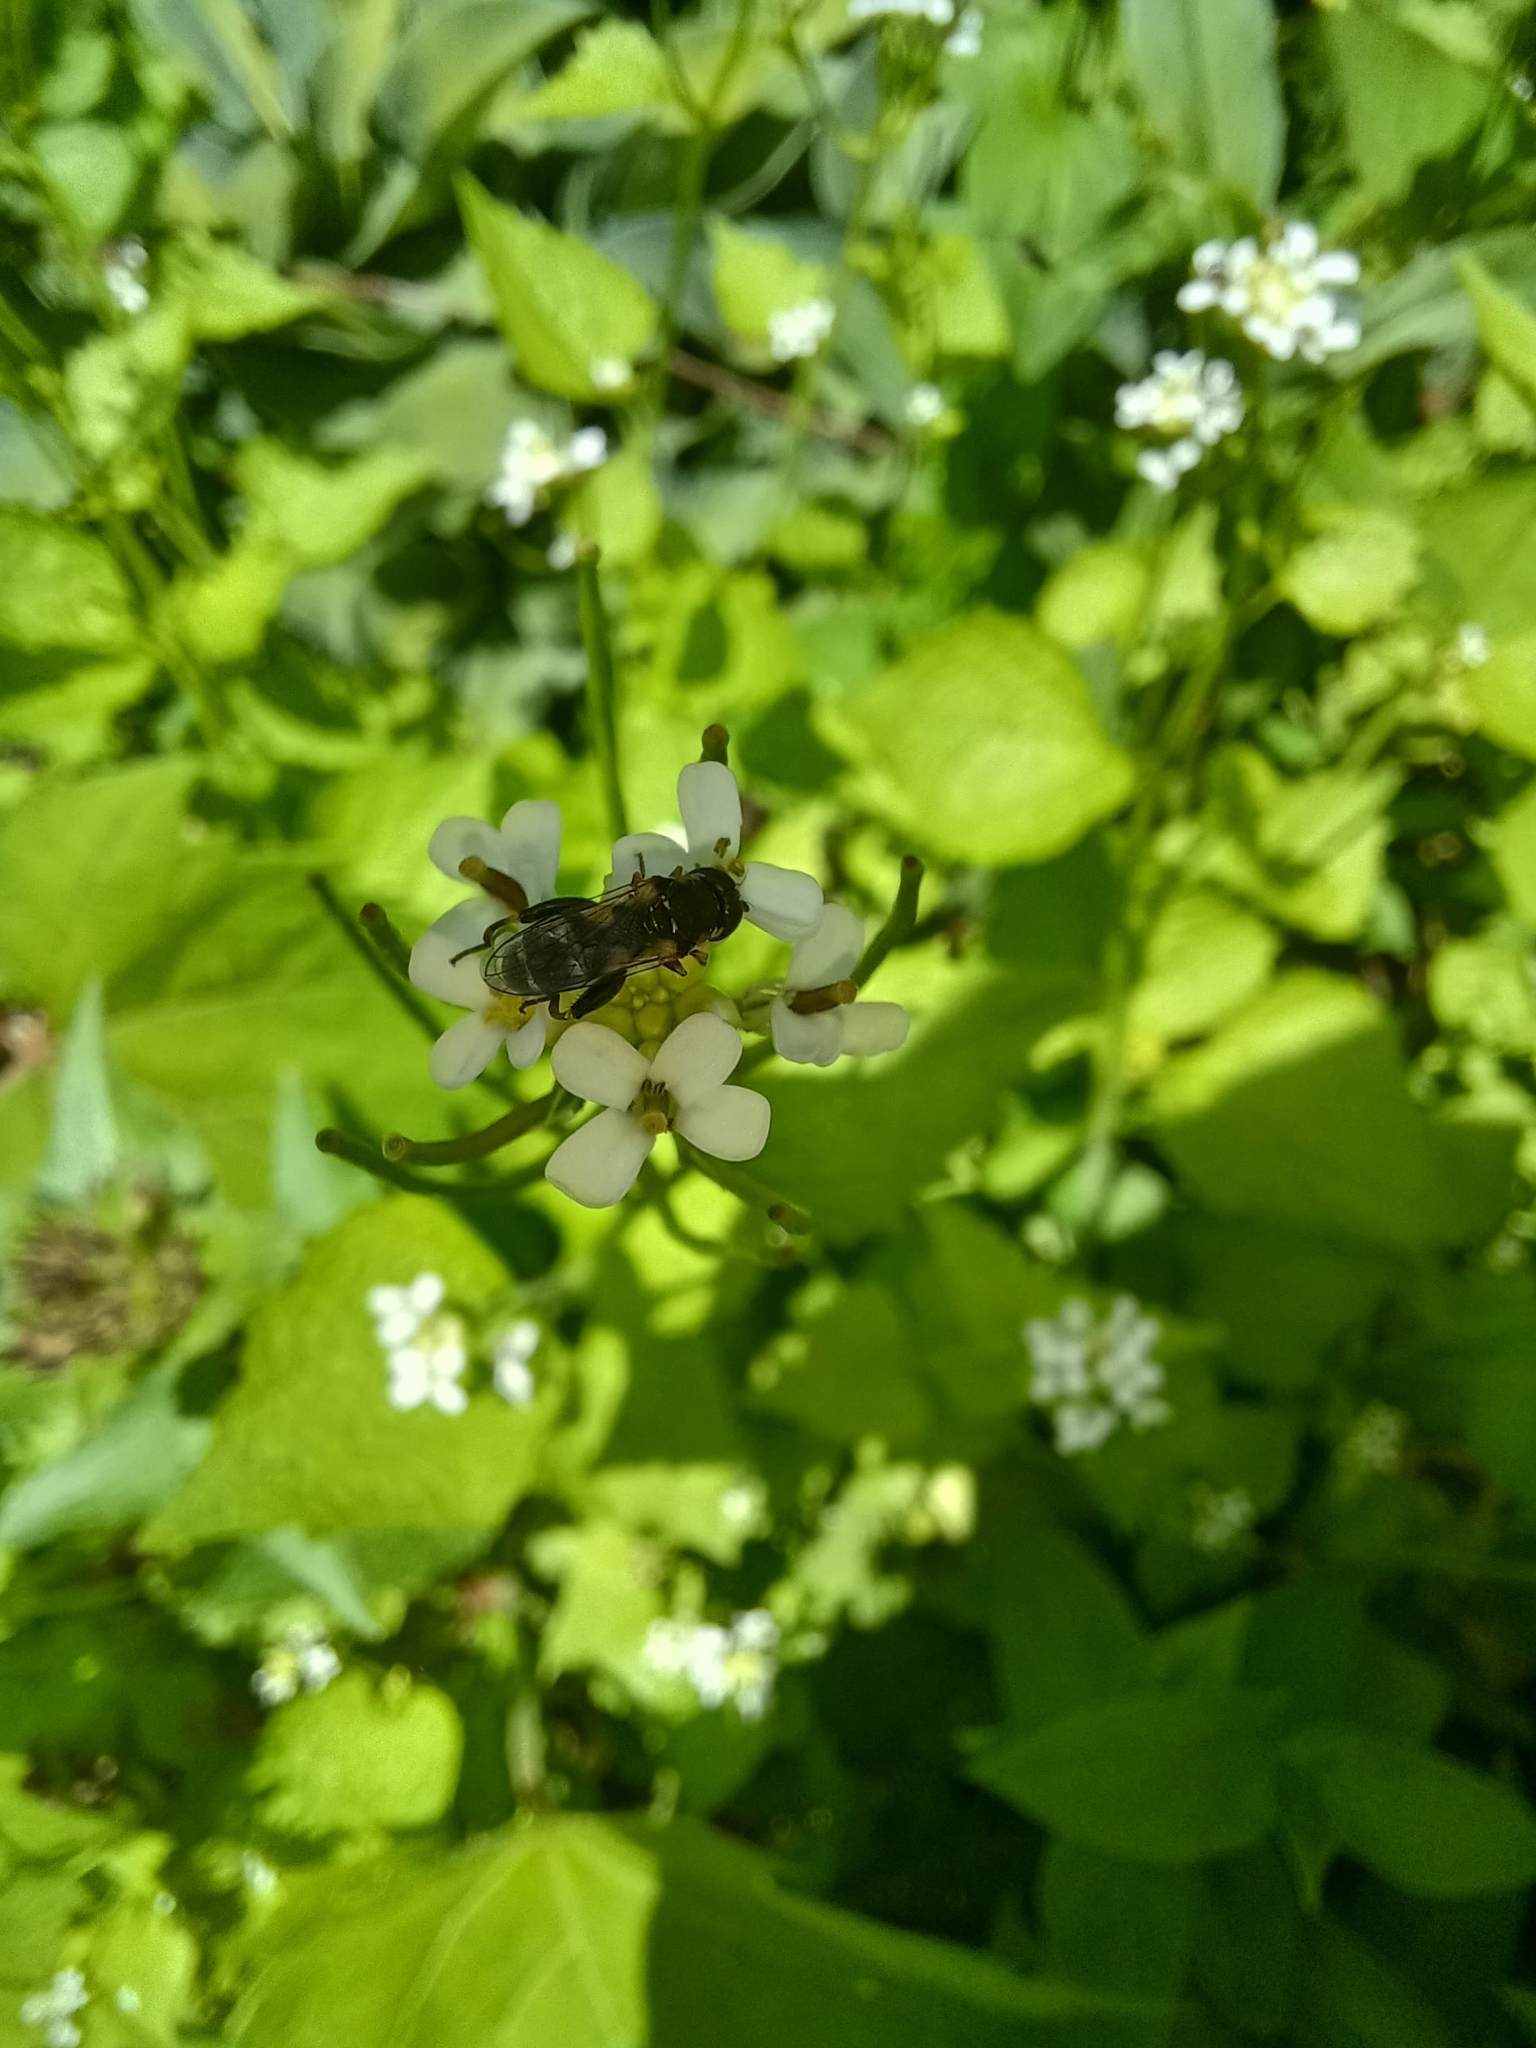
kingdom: Animalia
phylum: Arthropoda
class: Insecta
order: Diptera
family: Syrphidae
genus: Syritta
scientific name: Syritta pipiens
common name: Hover fly
